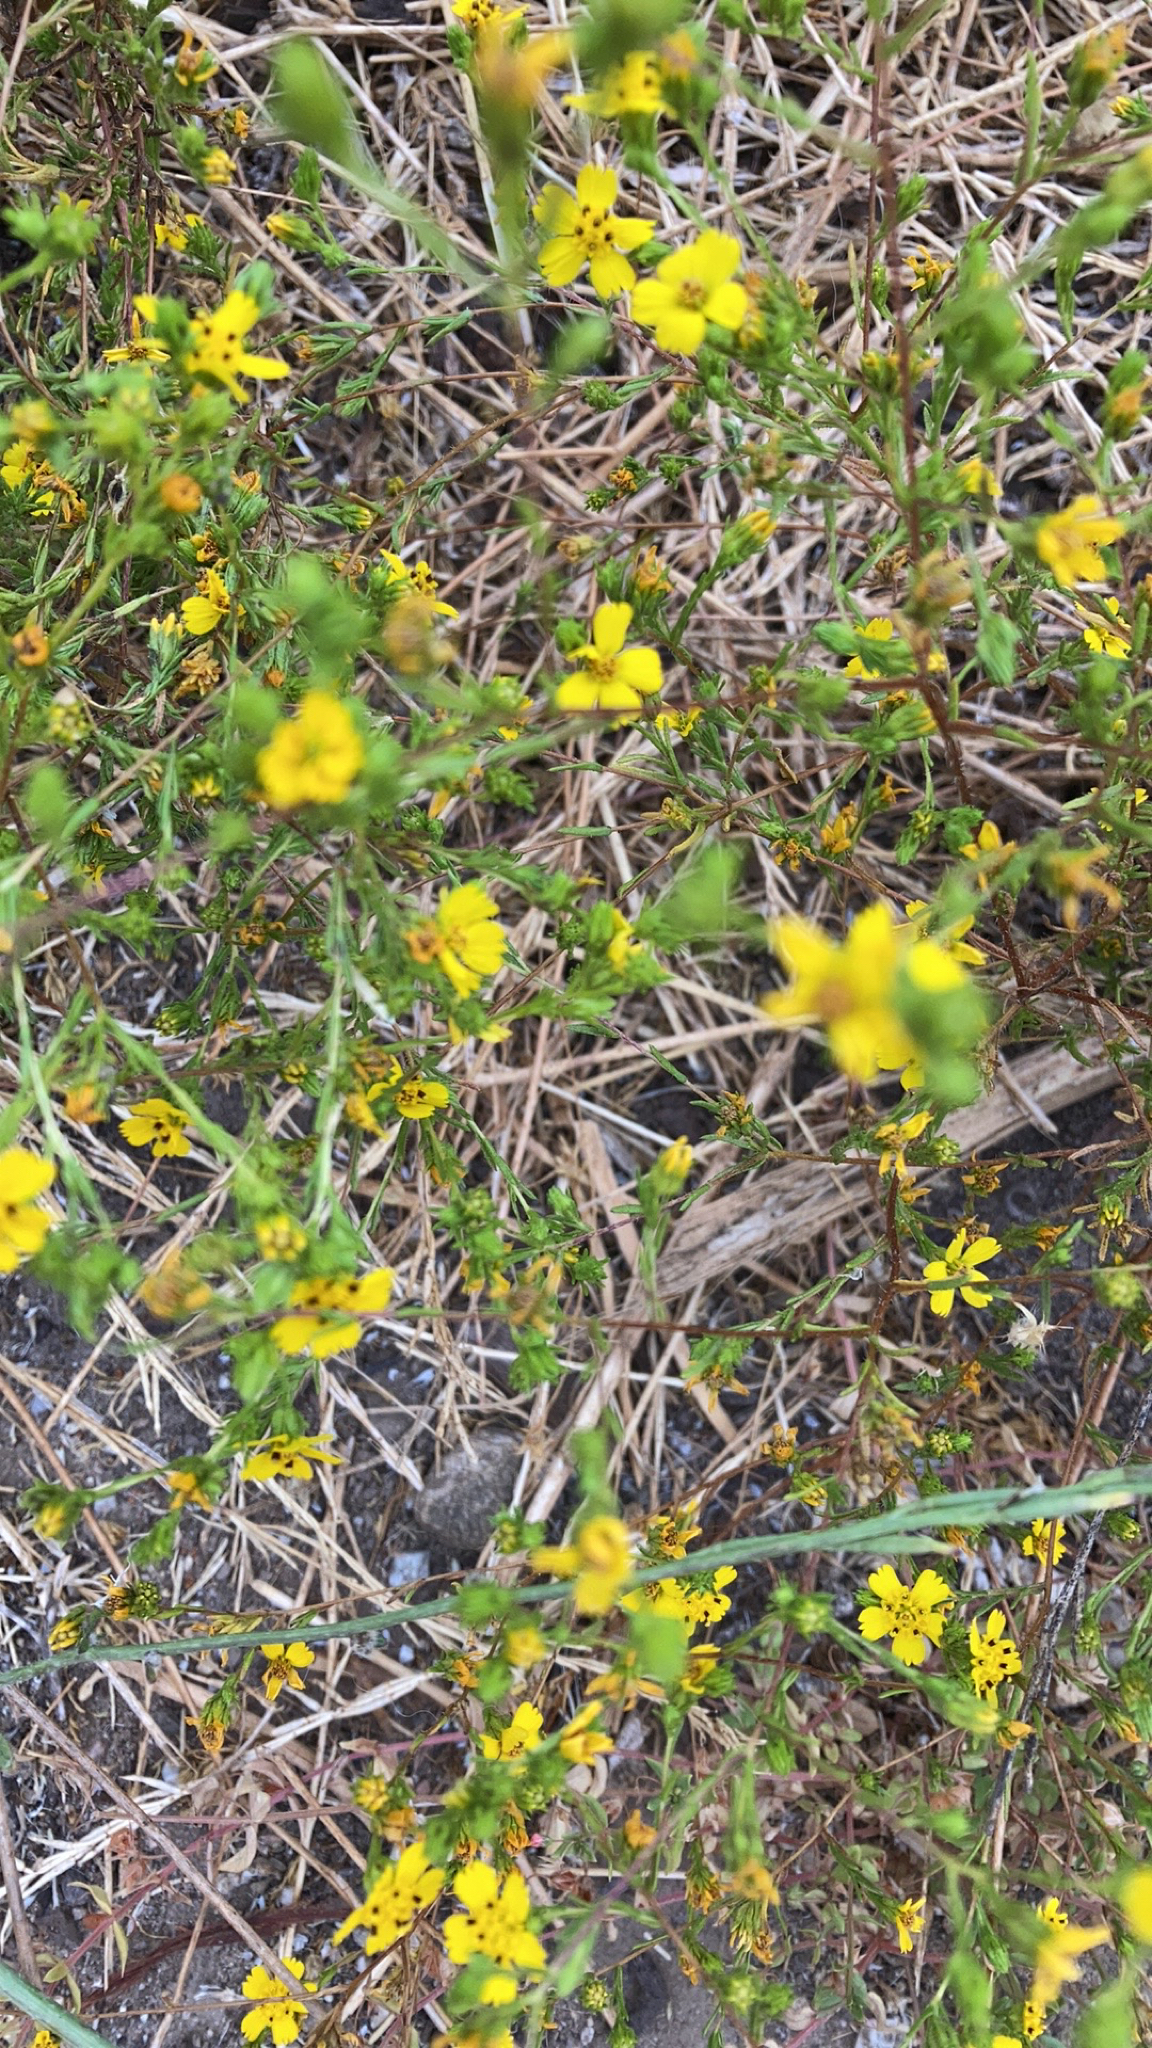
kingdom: Plantae
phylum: Tracheophyta
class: Magnoliopsida
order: Asterales
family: Asteraceae
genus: Deinandra
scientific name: Deinandra fasciculata
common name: Clustered tarweed
